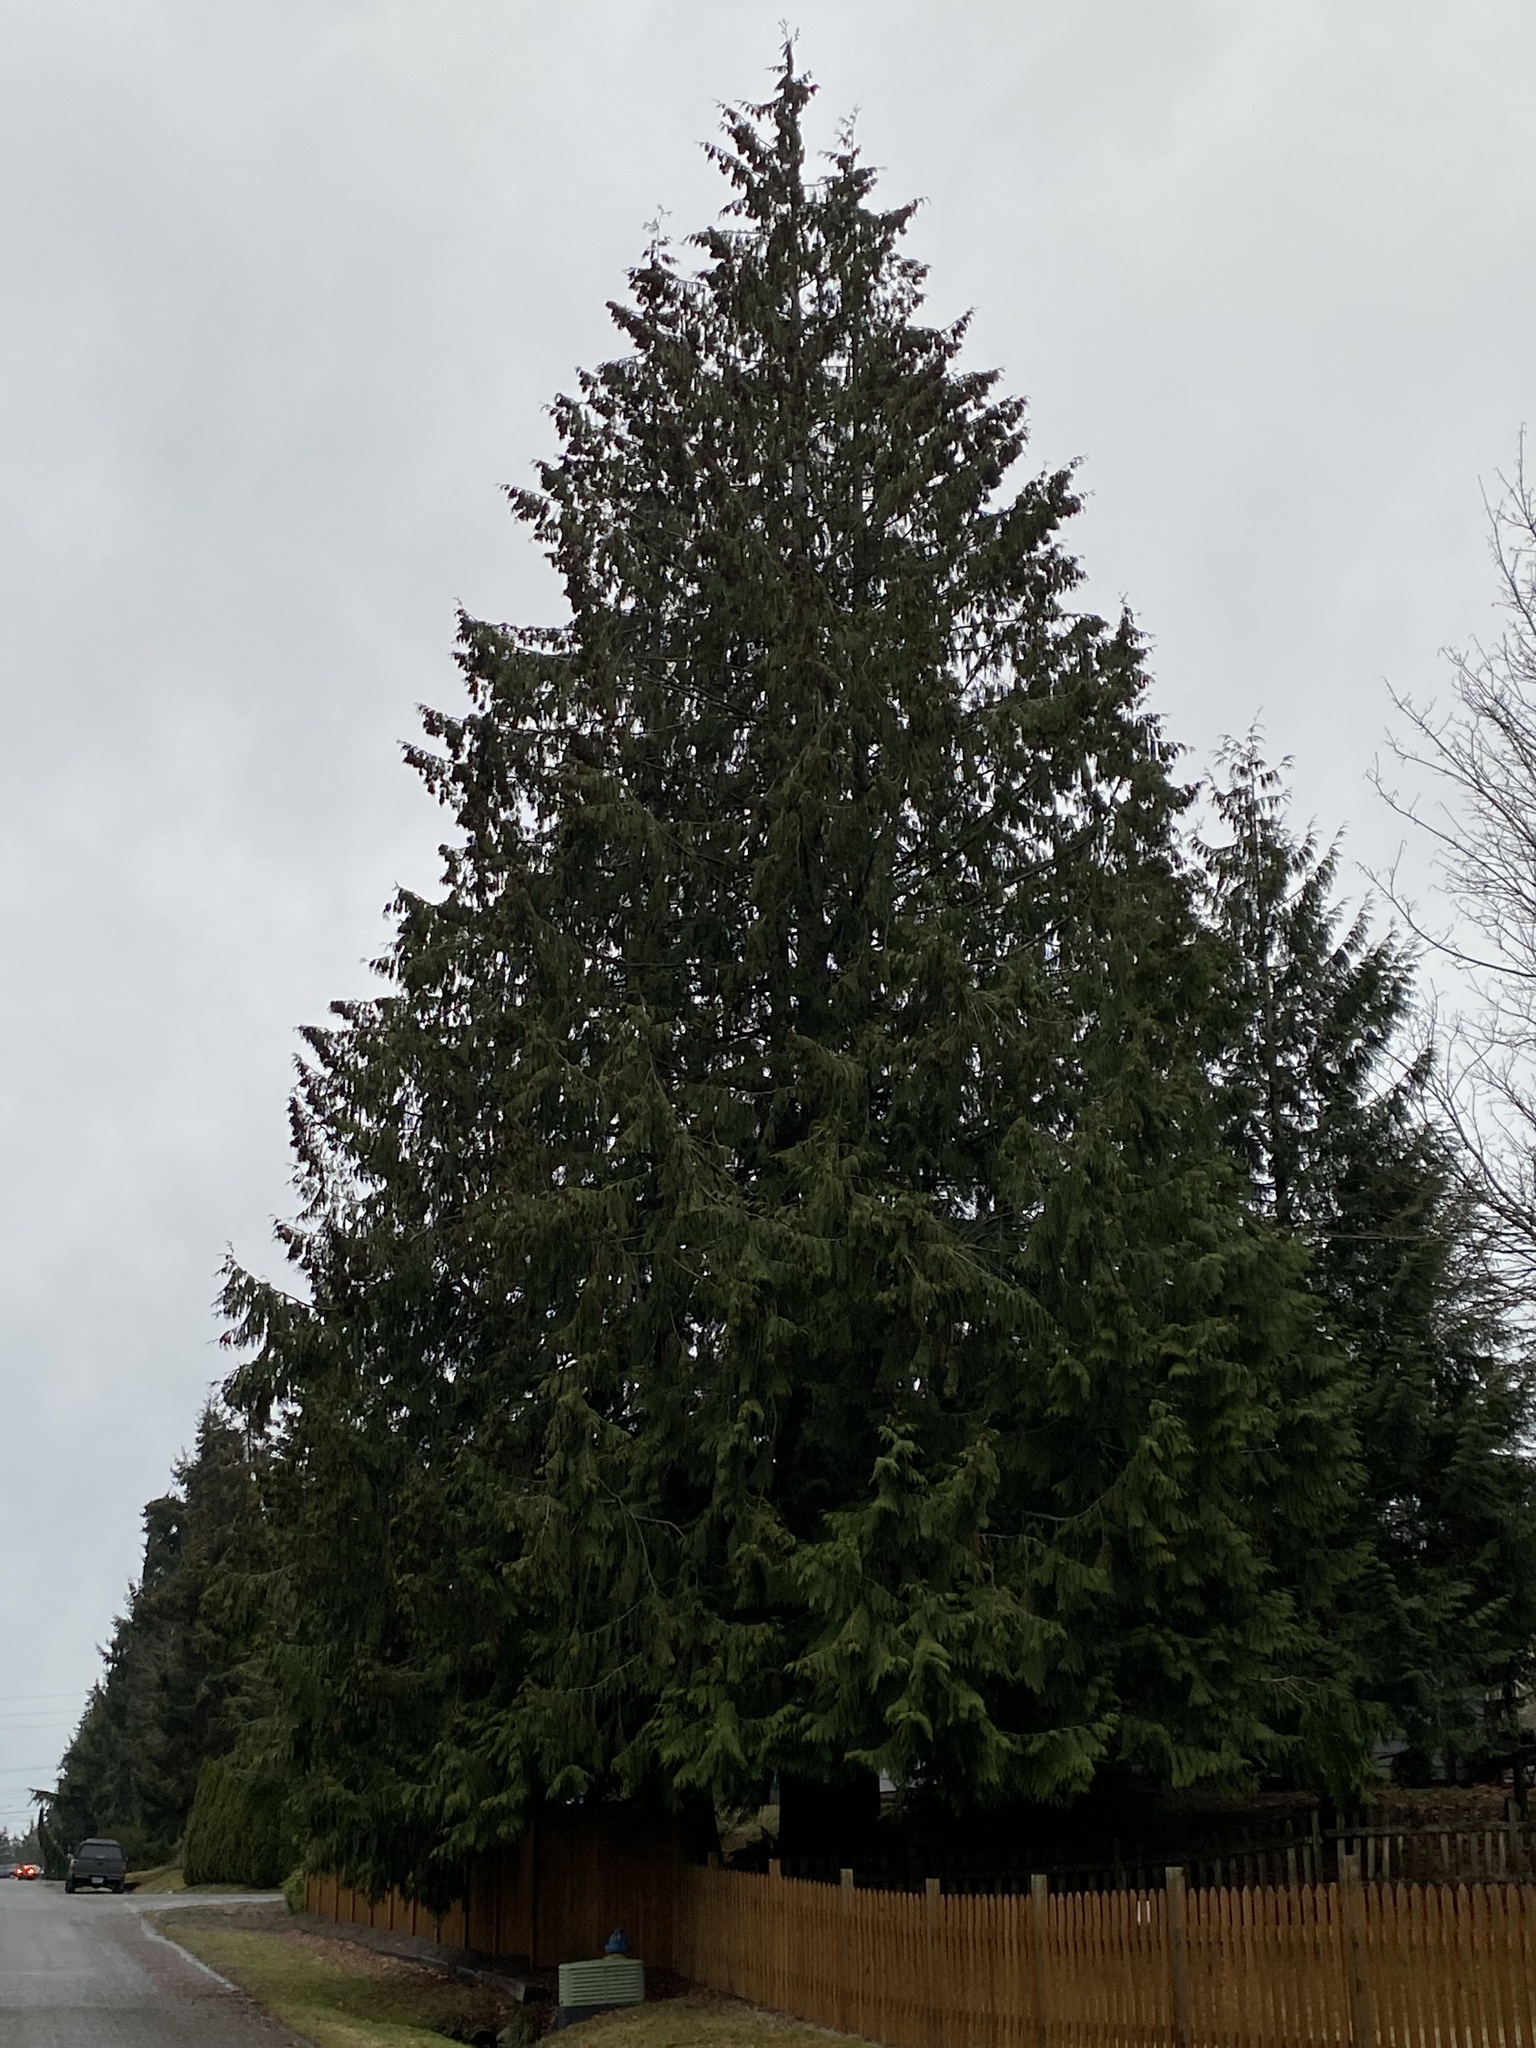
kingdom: Plantae
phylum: Tracheophyta
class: Pinopsida
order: Pinales
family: Cupressaceae
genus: Thuja
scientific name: Thuja plicata
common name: Western red-cedar
